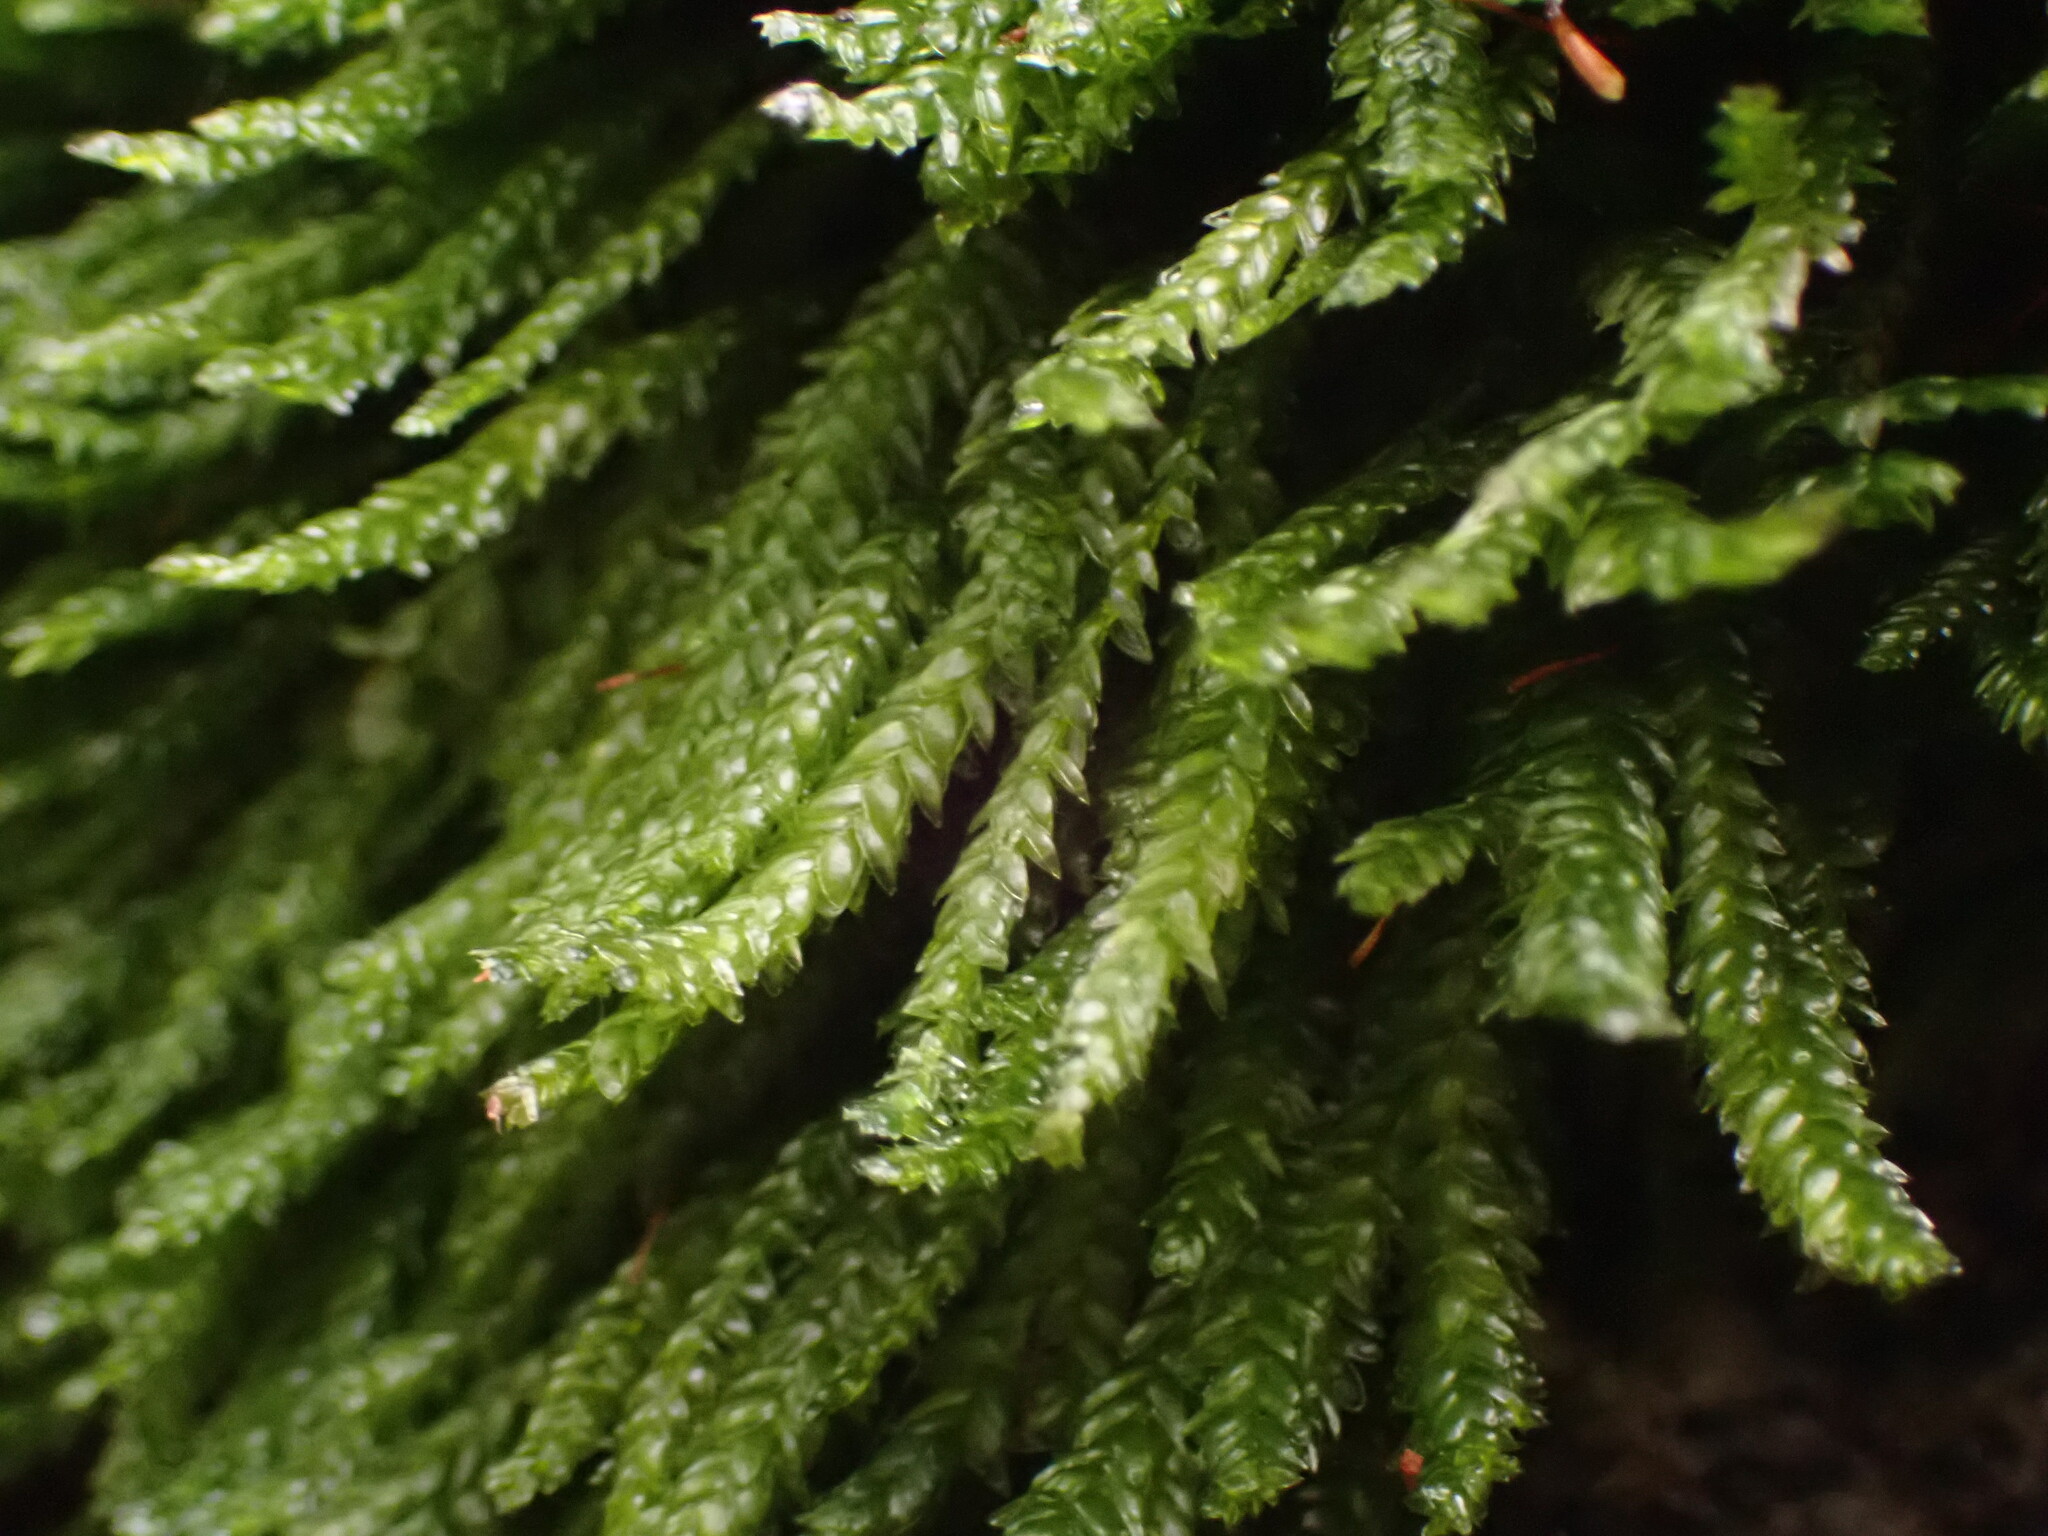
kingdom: Plantae
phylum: Bryophyta
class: Bryopsida
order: Hypnales
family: Plagiotheciaceae
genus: Plagiothecium
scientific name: Plagiothecium denticulatum
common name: Dented silk moss
